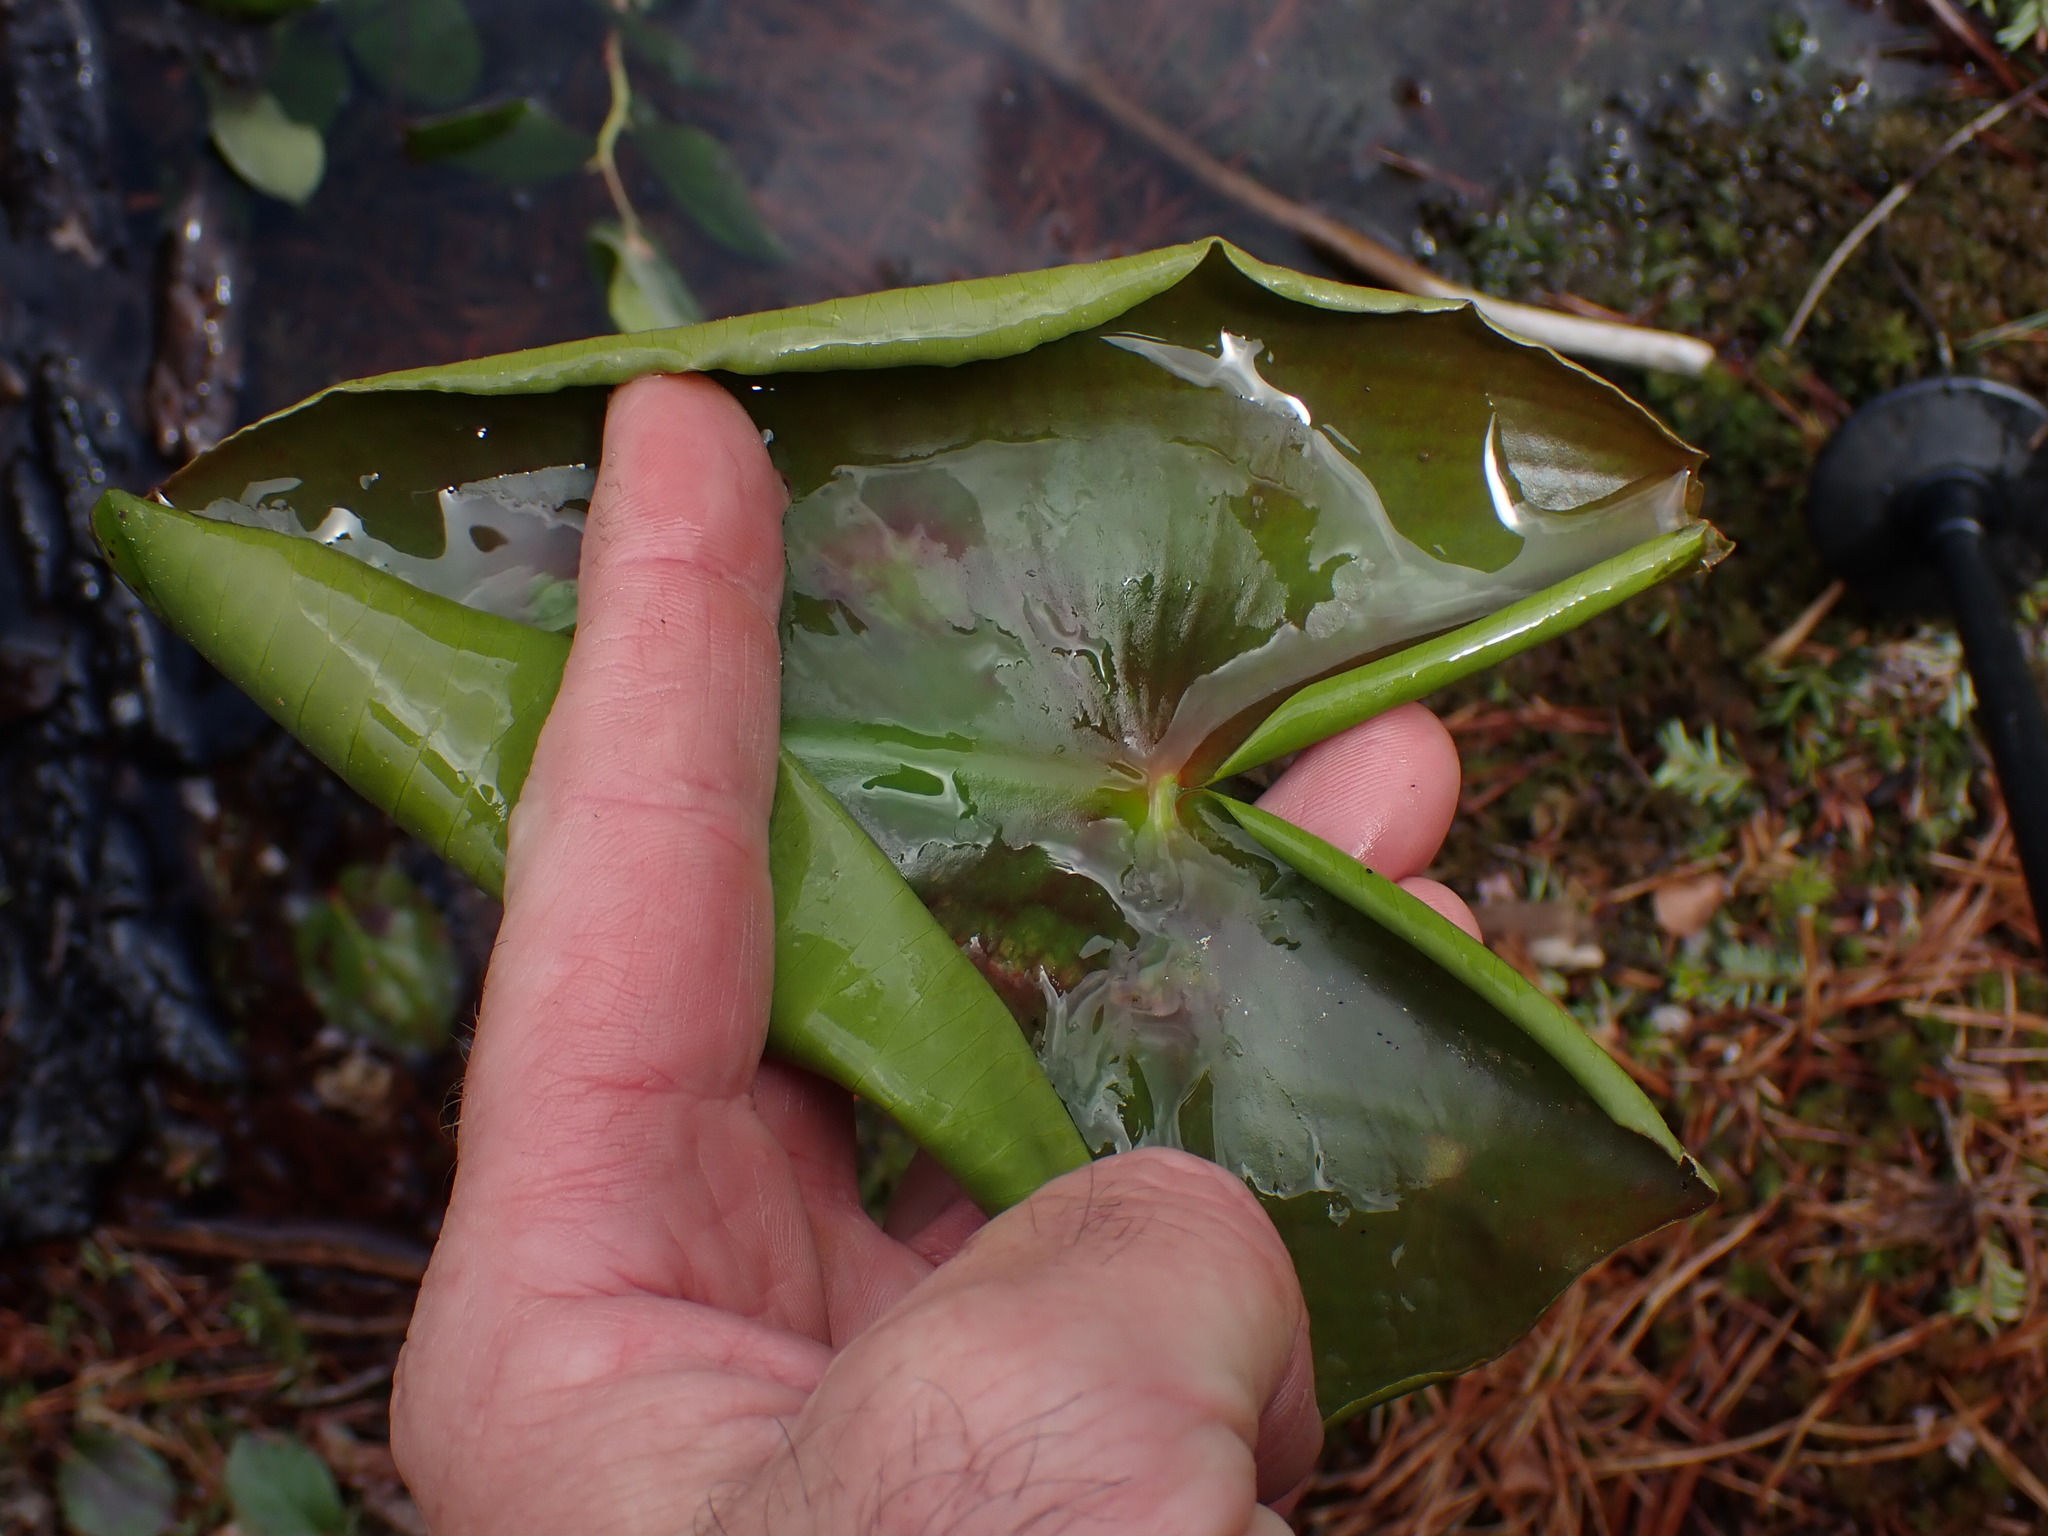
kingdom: Plantae
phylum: Tracheophyta
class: Magnoliopsida
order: Nymphaeales
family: Nymphaeaceae
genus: Nuphar
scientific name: Nuphar polysepala
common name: Rocky mountain cow-lily
